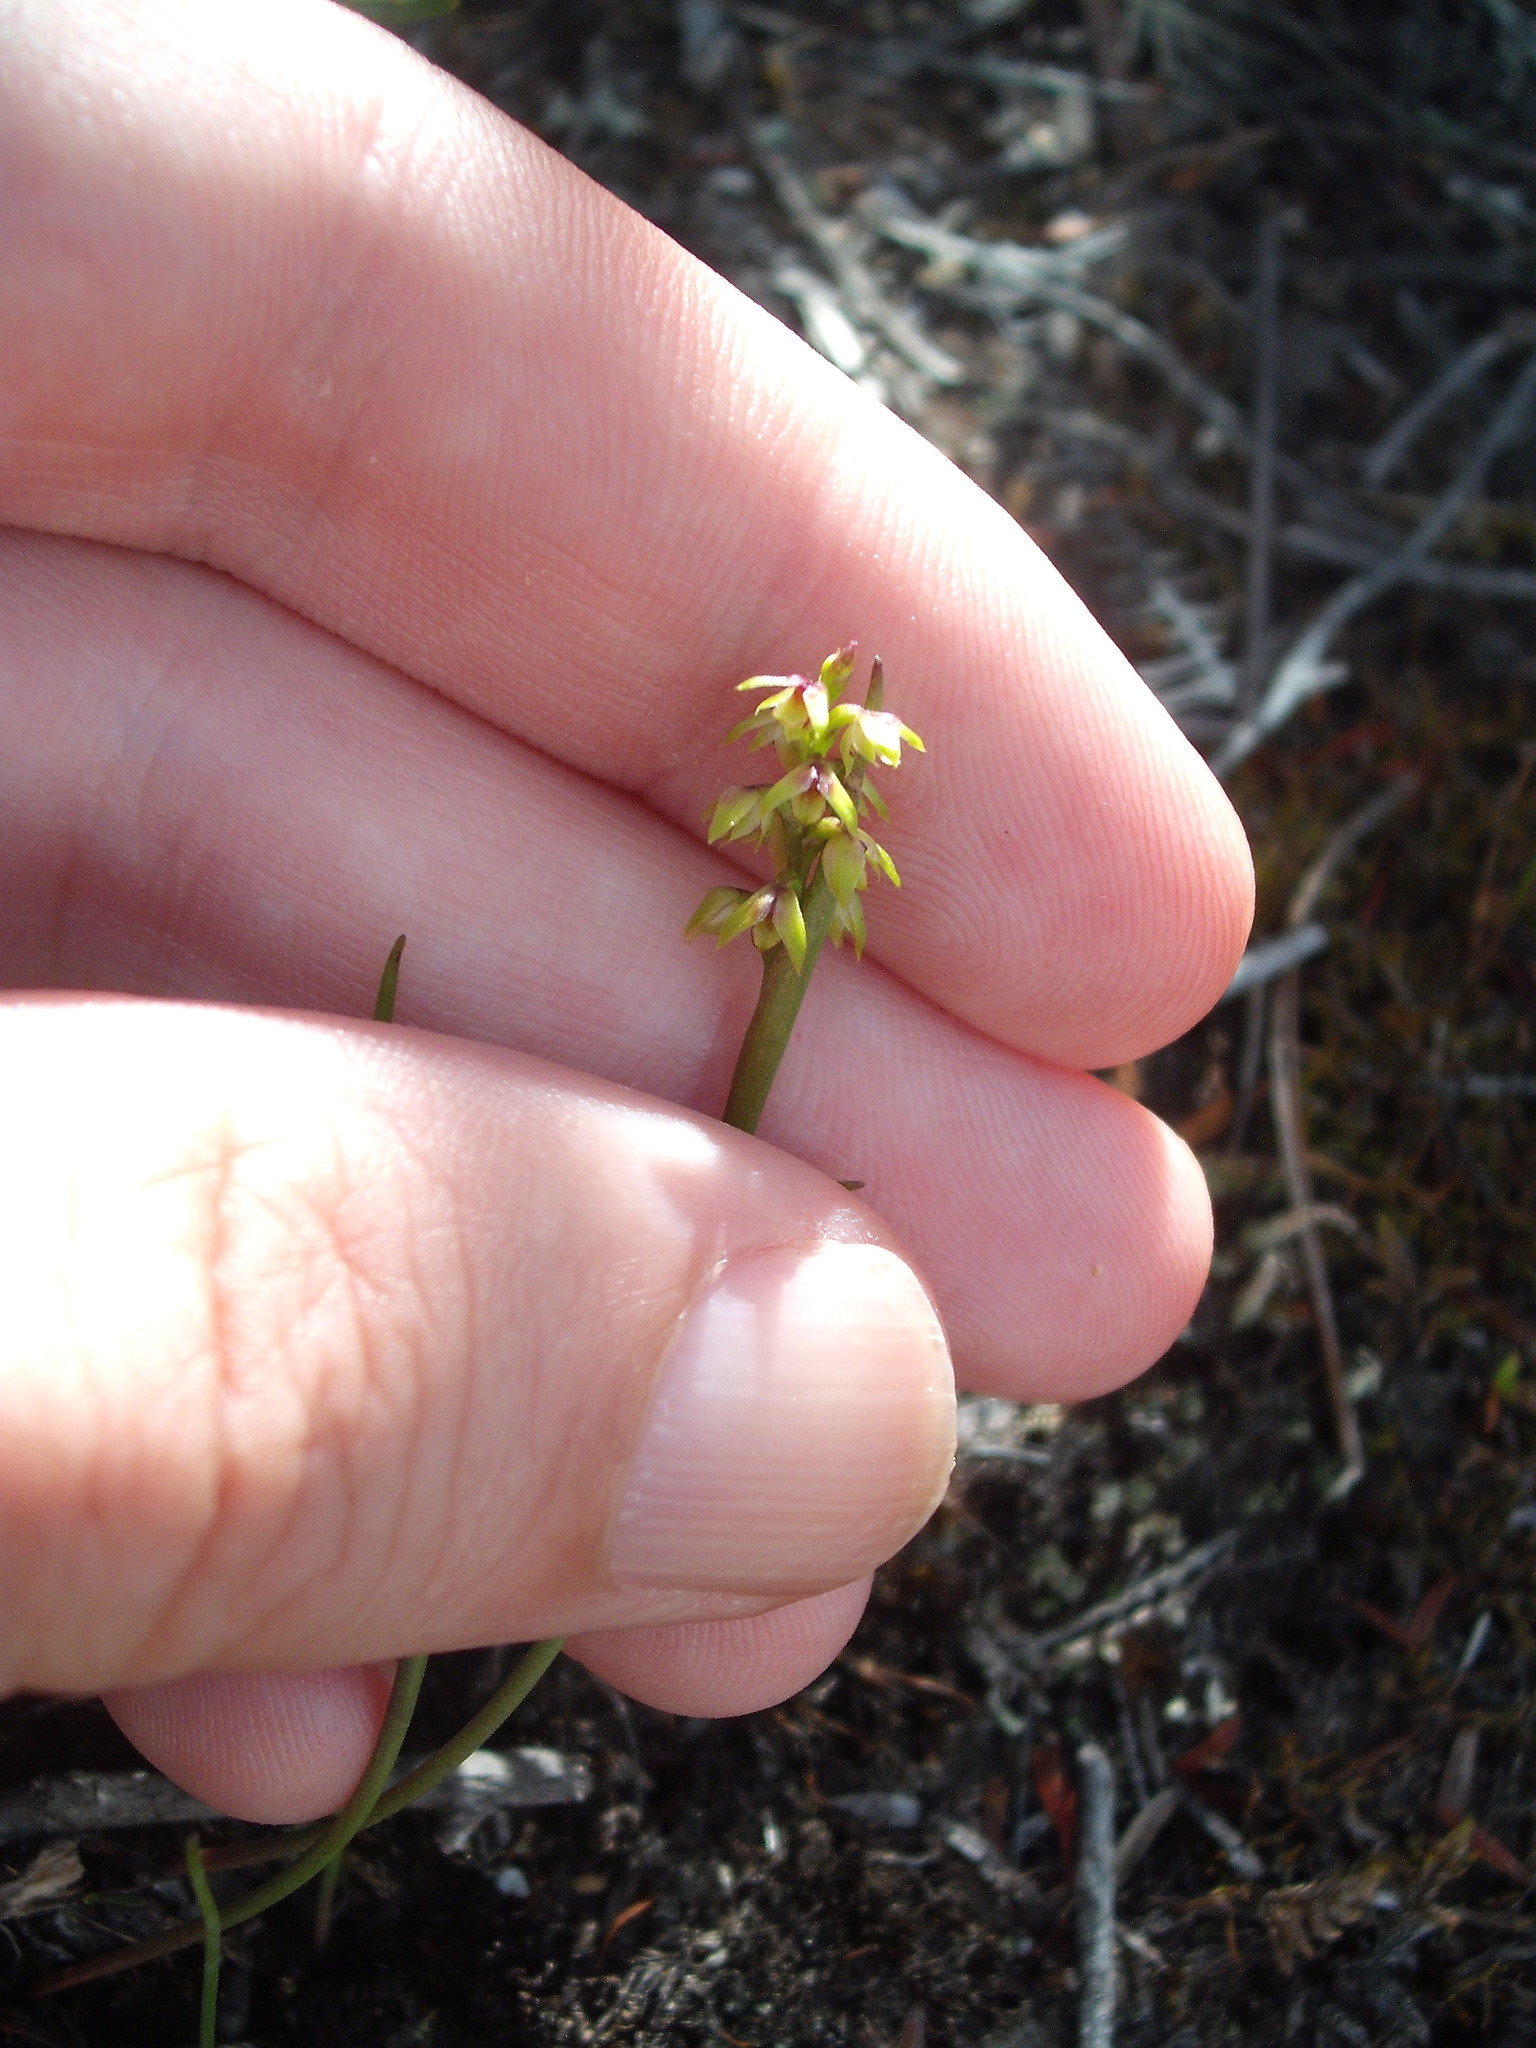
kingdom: Plantae
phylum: Tracheophyta
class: Liliopsida
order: Asparagales
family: Orchidaceae
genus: Genoplesium
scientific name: Genoplesium pumilum
